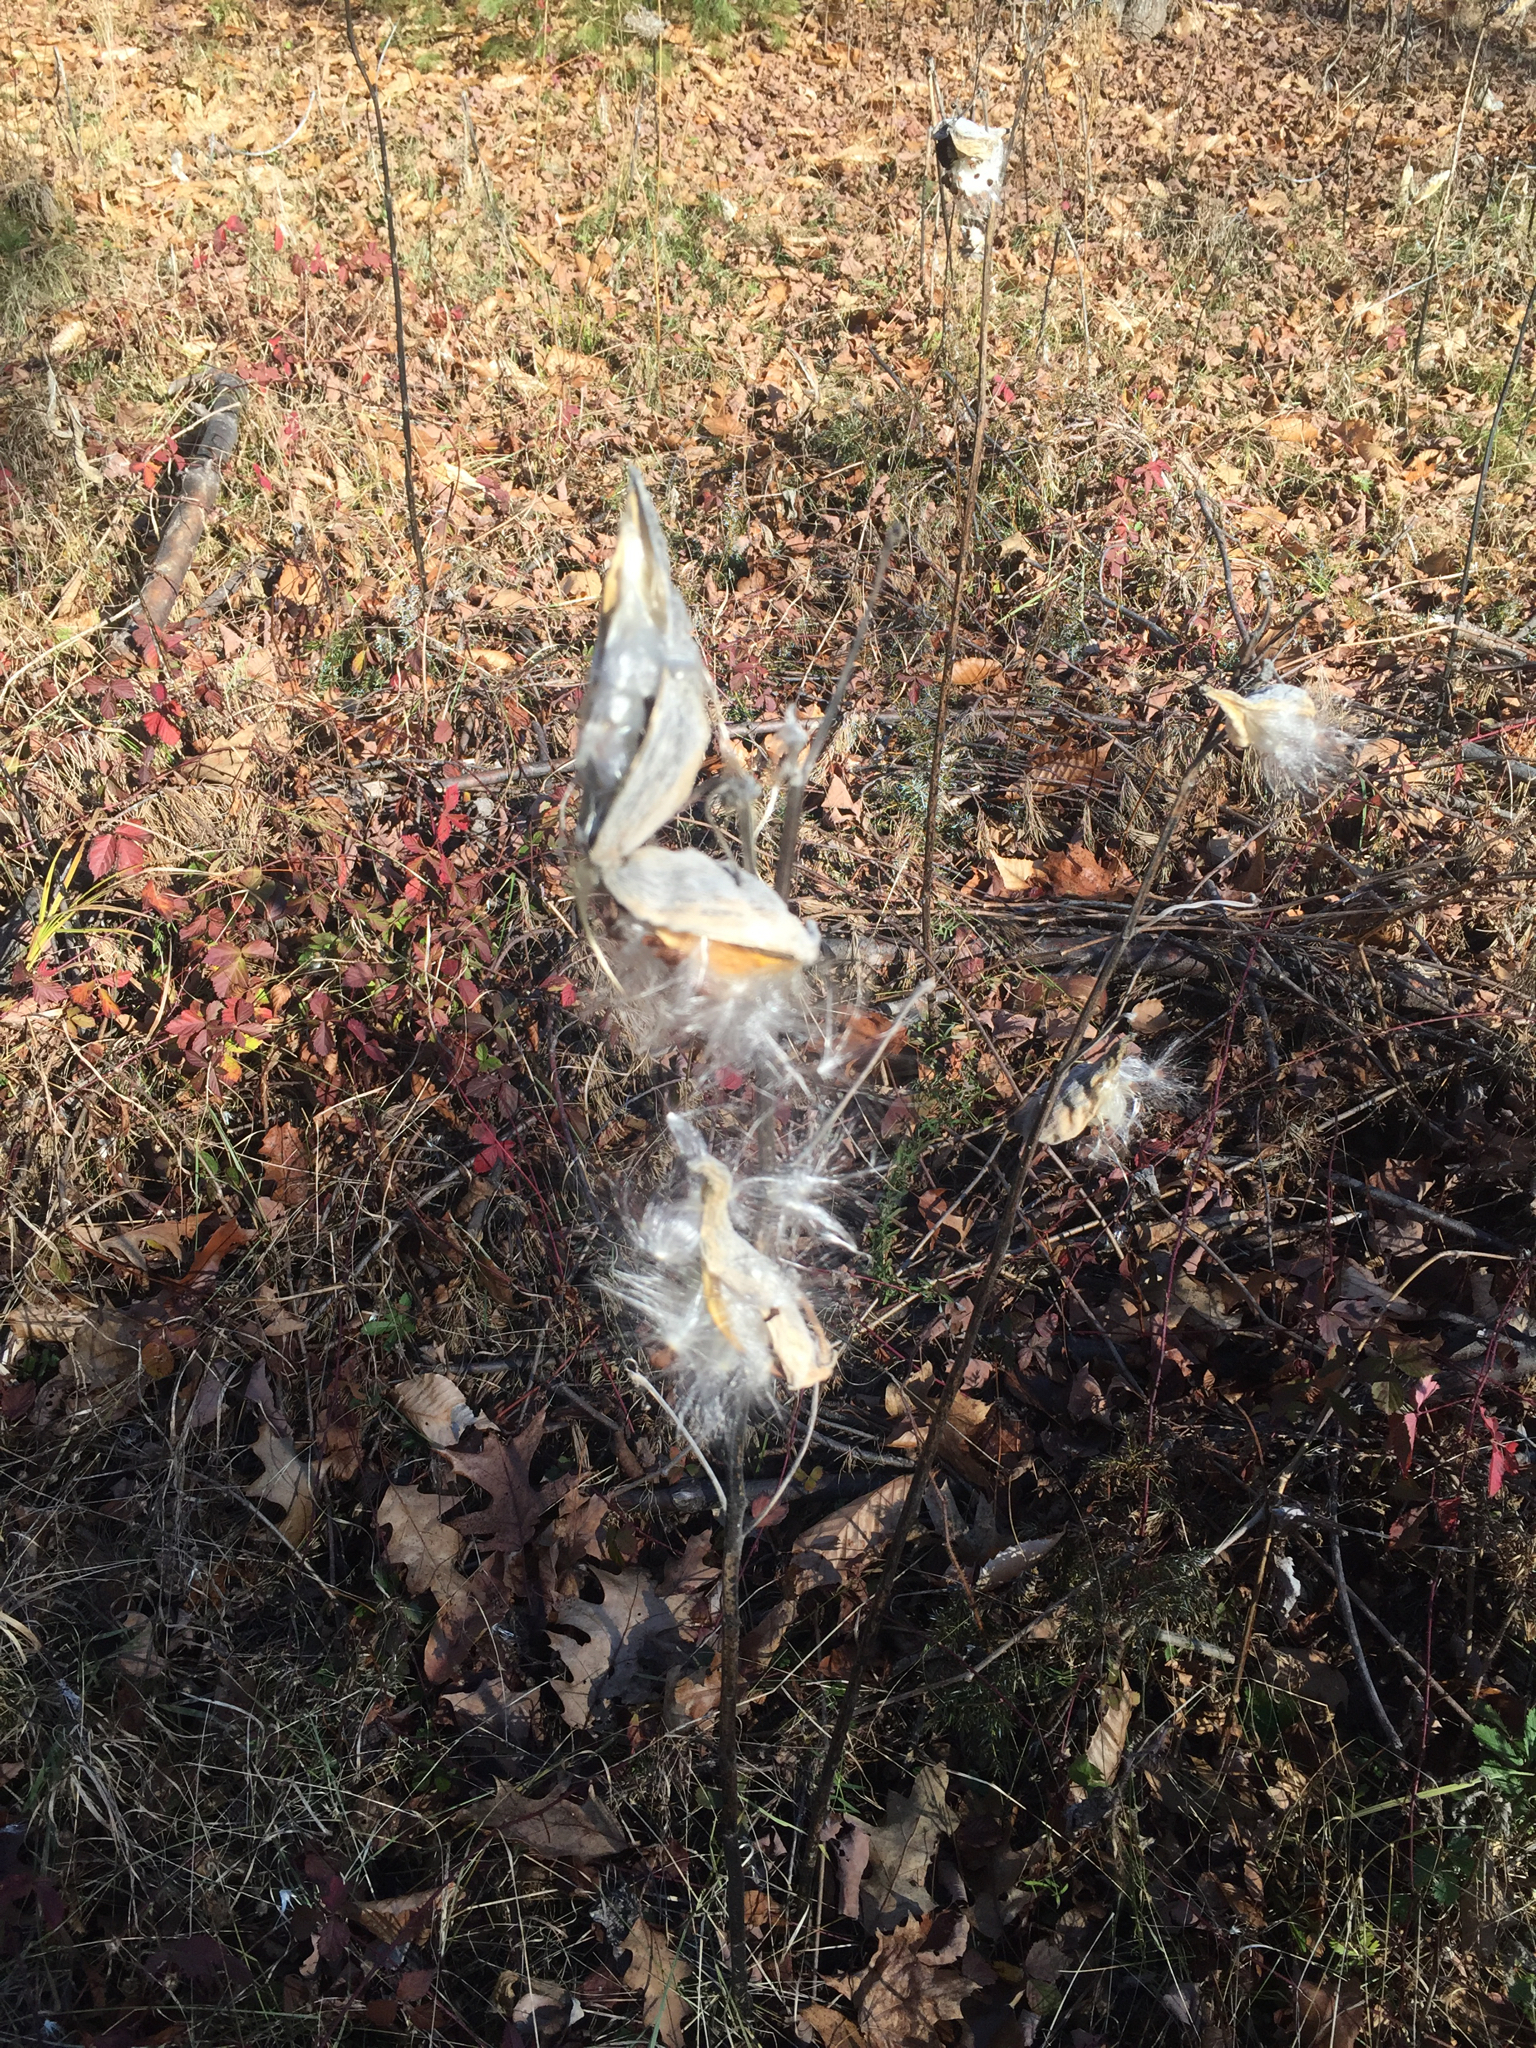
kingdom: Plantae
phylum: Tracheophyta
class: Magnoliopsida
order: Gentianales
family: Apocynaceae
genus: Asclepias
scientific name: Asclepias syriaca
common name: Common milkweed
